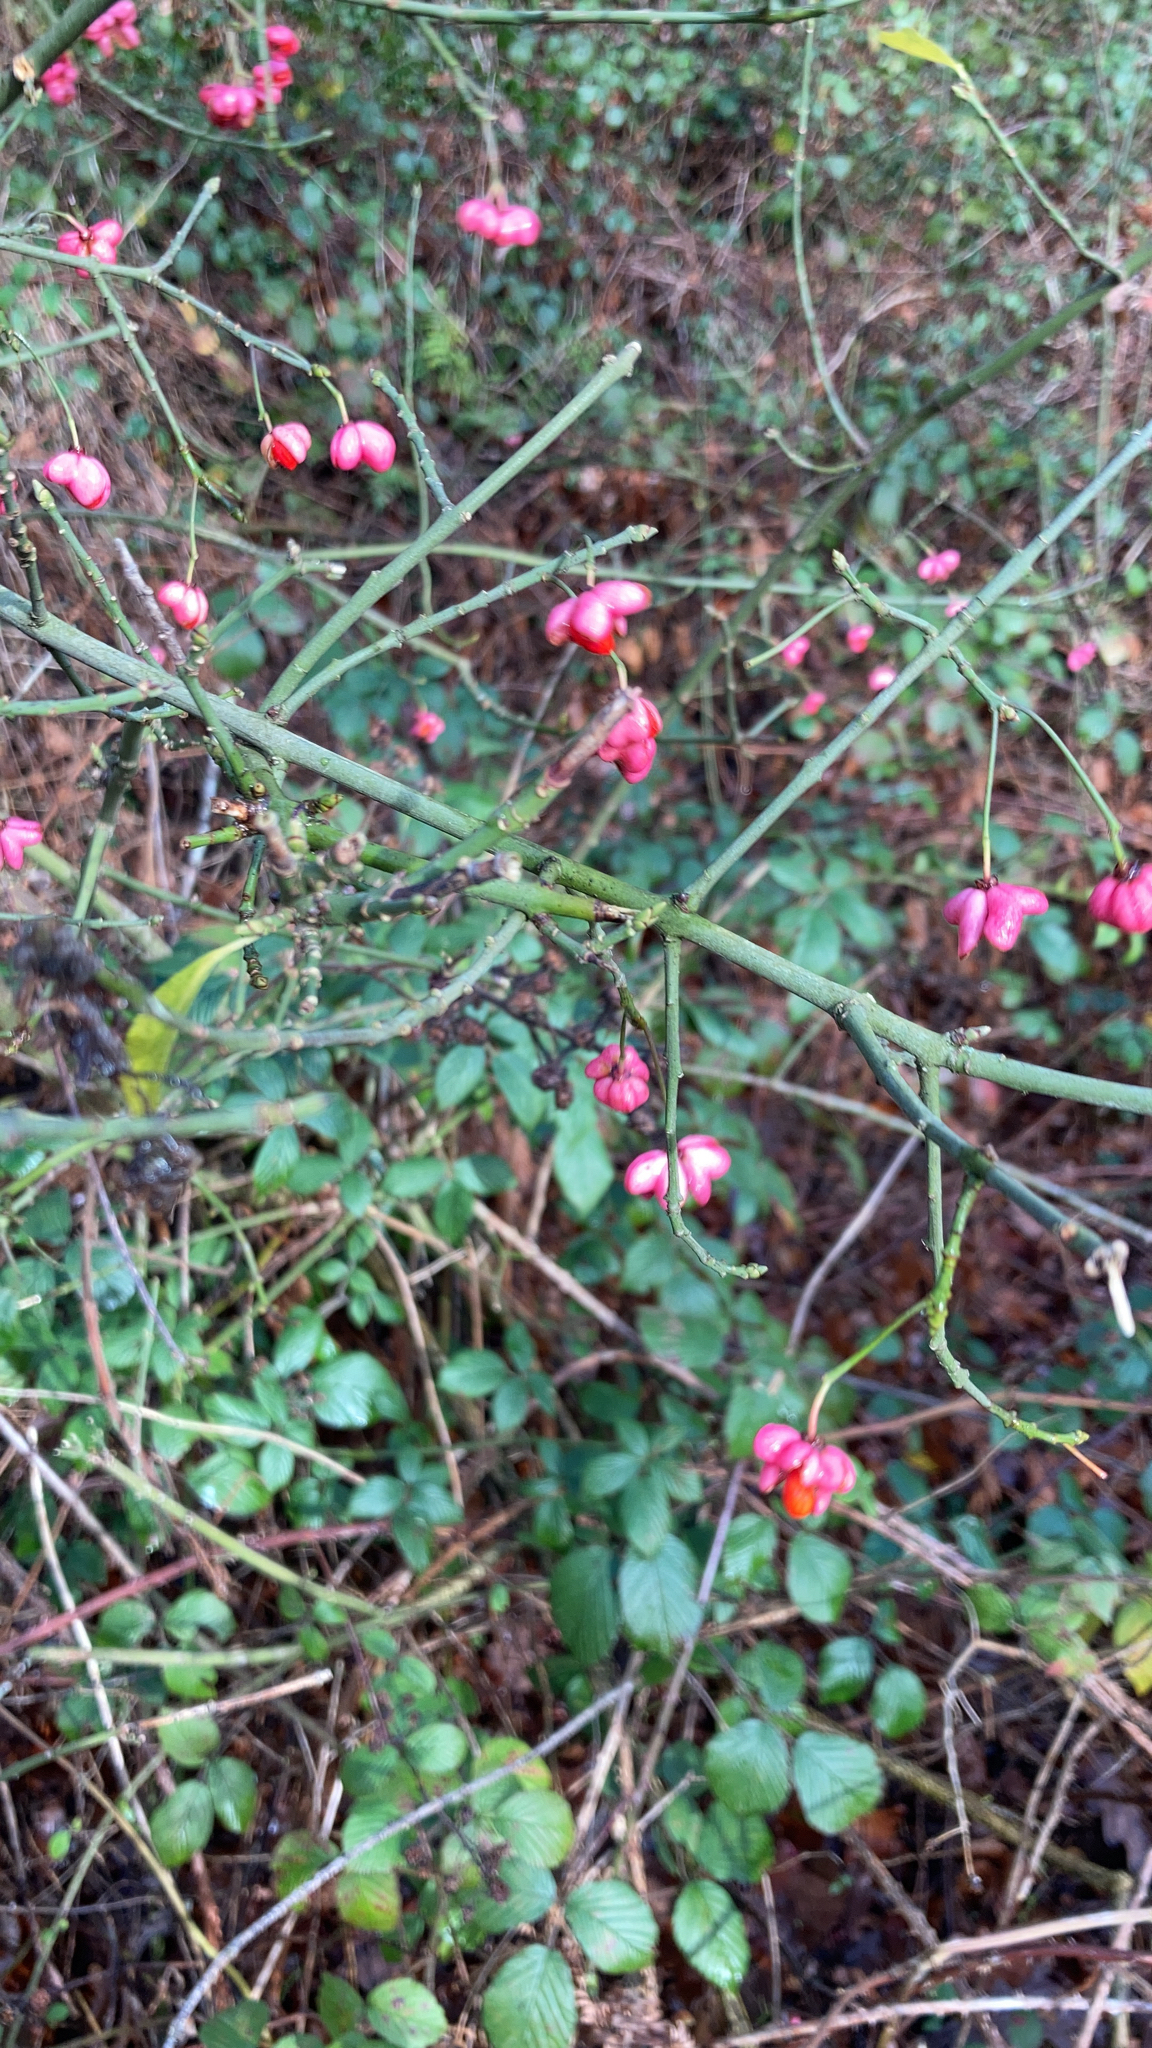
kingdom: Plantae
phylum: Tracheophyta
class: Magnoliopsida
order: Celastrales
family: Celastraceae
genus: Euonymus
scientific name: Euonymus europaeus
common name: Spindle
